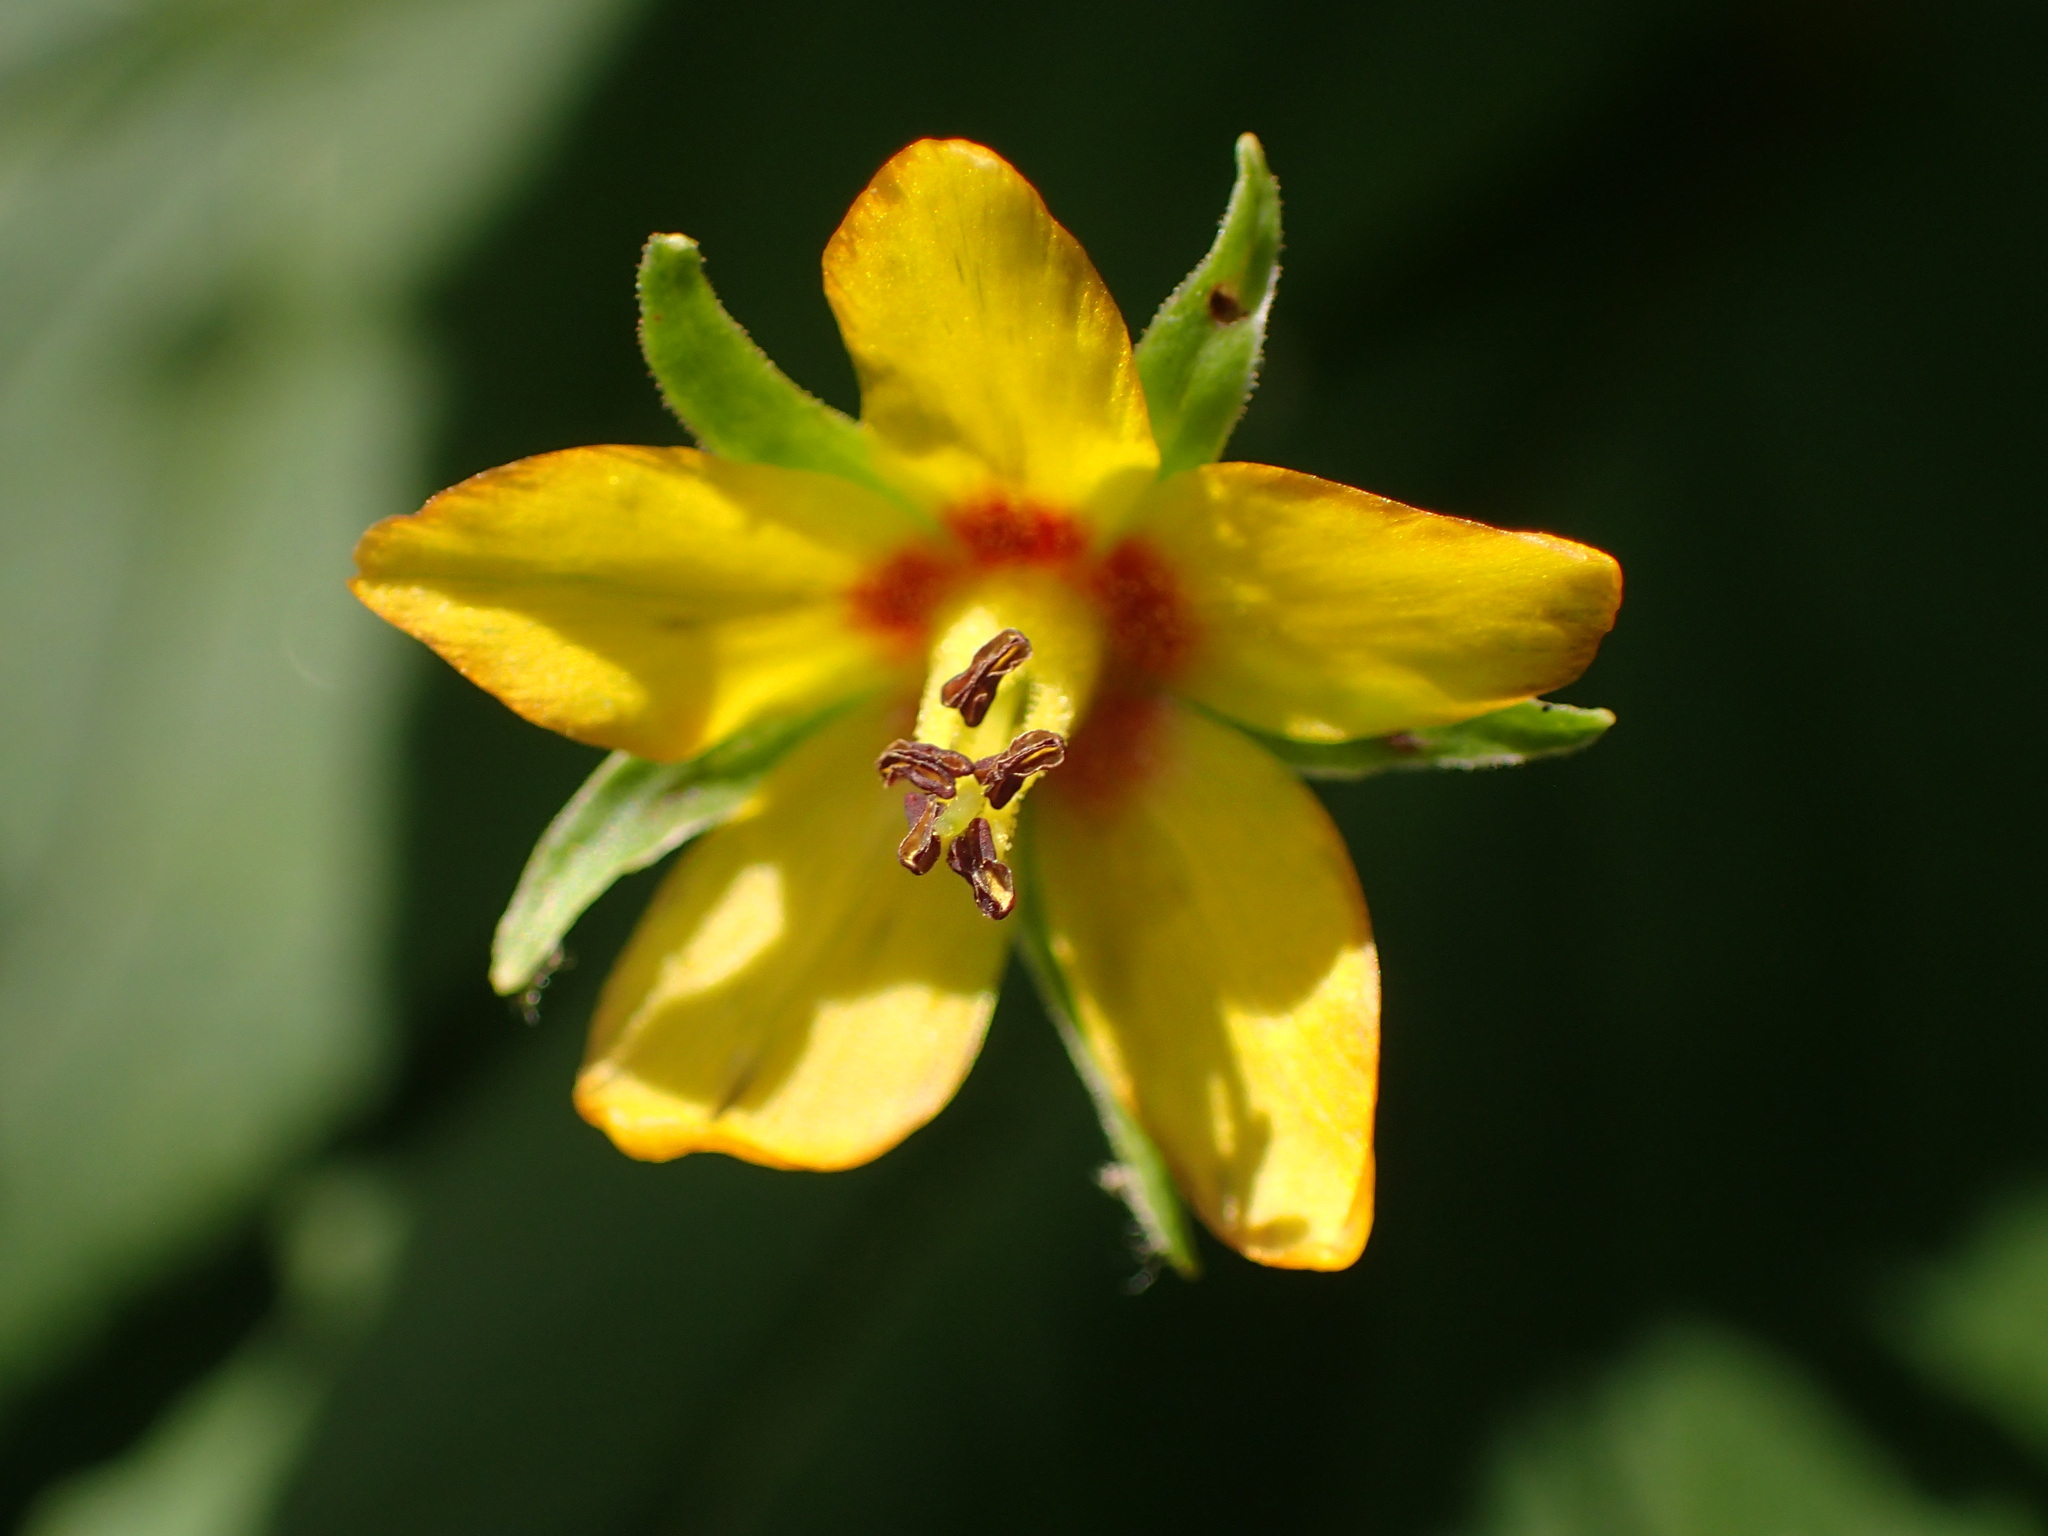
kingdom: Plantae
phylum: Tracheophyta
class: Magnoliopsida
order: Ericales
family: Primulaceae
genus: Lysimachia
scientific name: Lysimachia quadrifolia
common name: Whorled loosestrife
